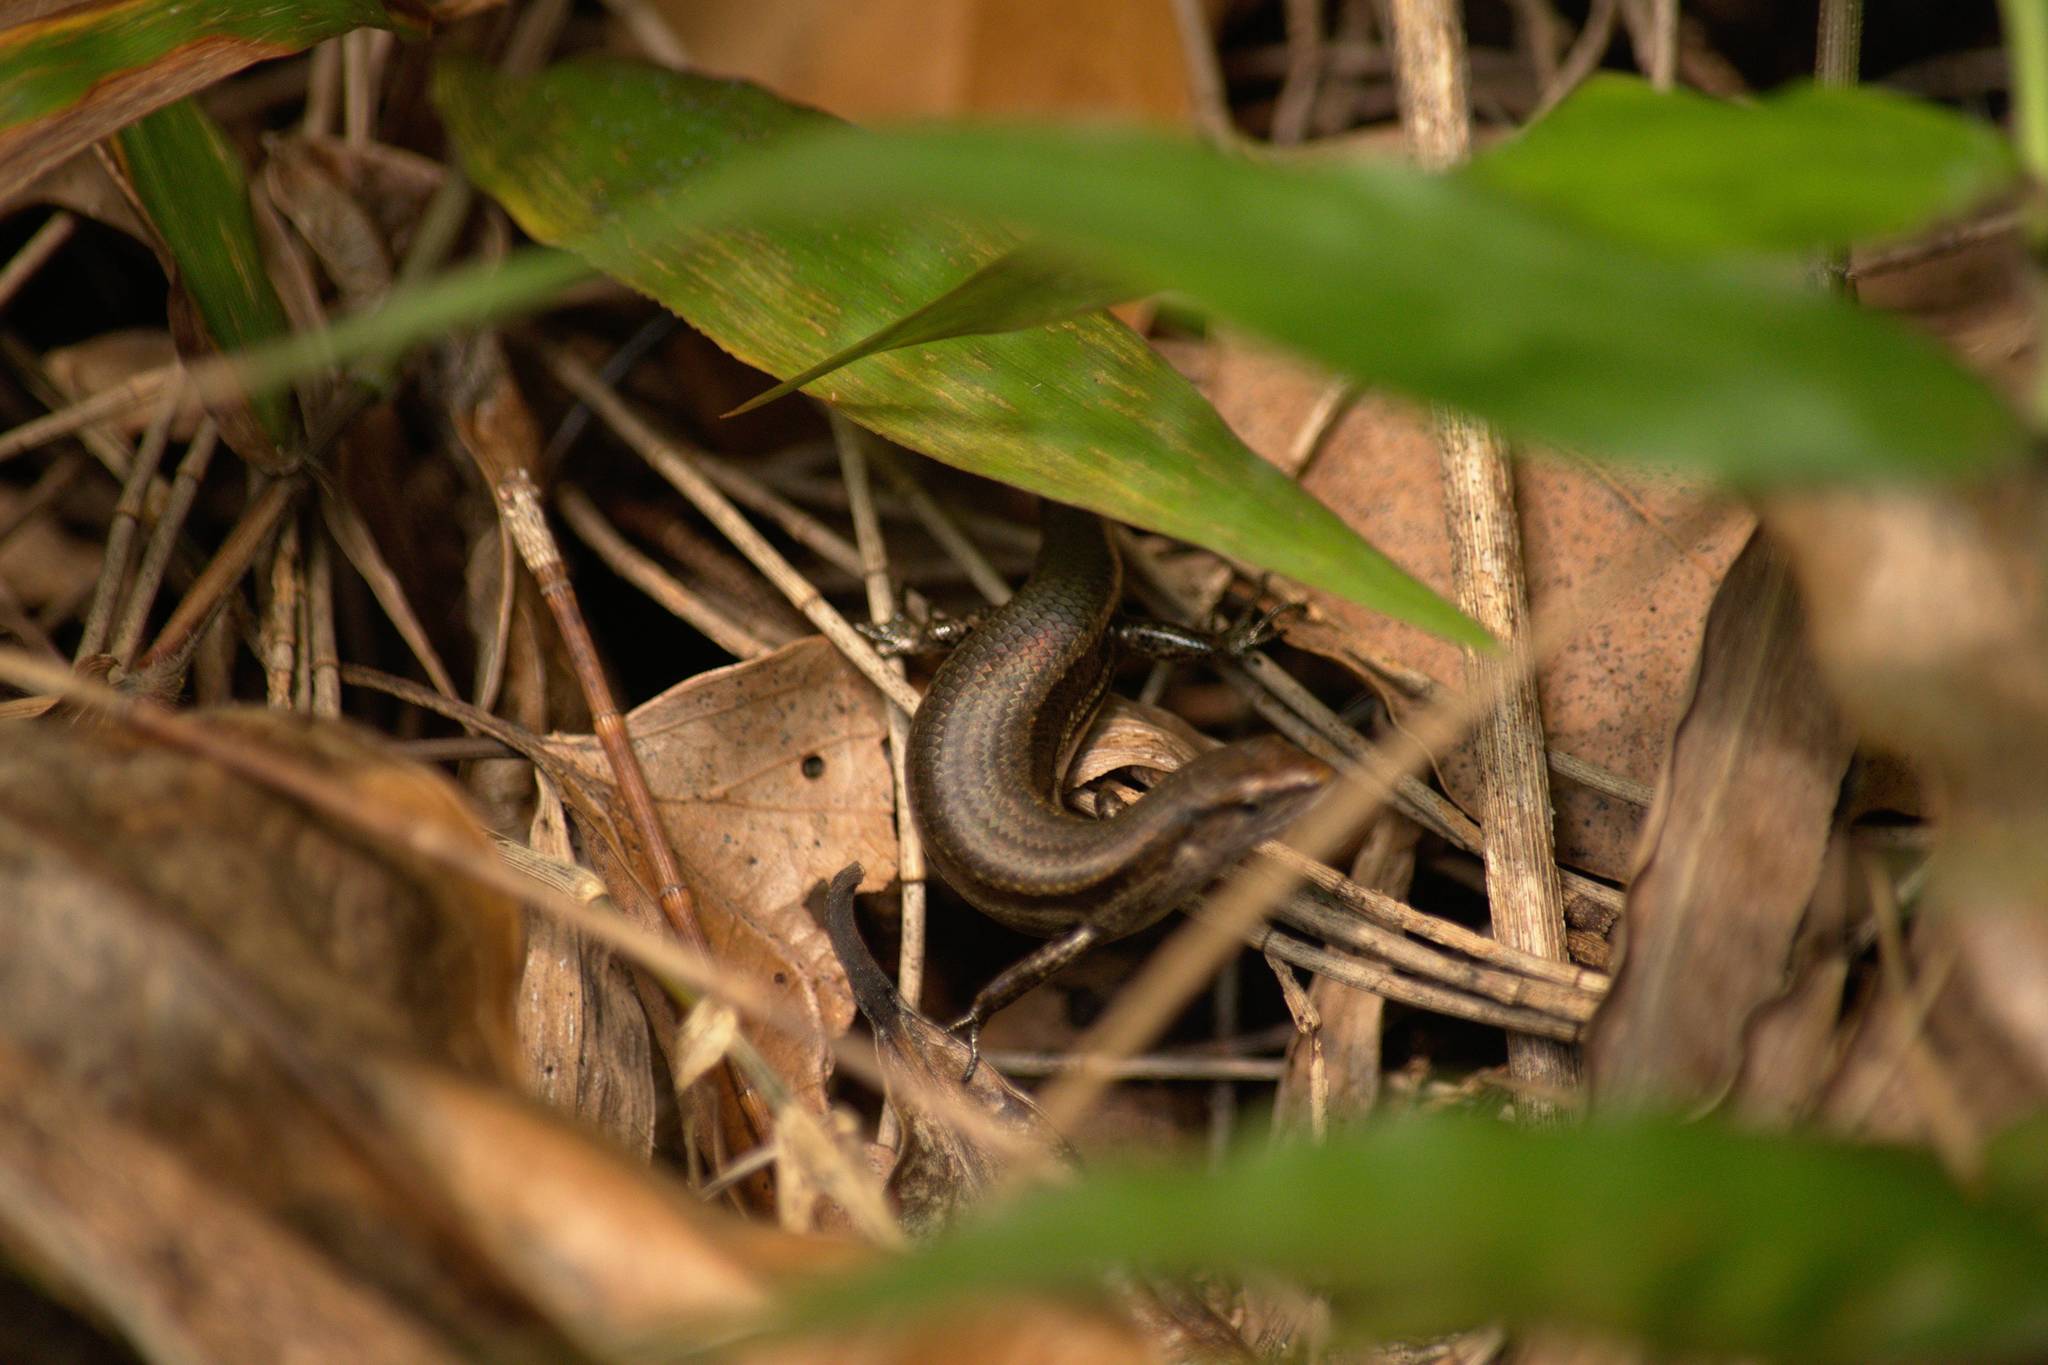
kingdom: Animalia
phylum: Chordata
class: Squamata
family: Scincidae
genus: Lampropholis
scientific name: Lampropholis delicata
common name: Plague skink
